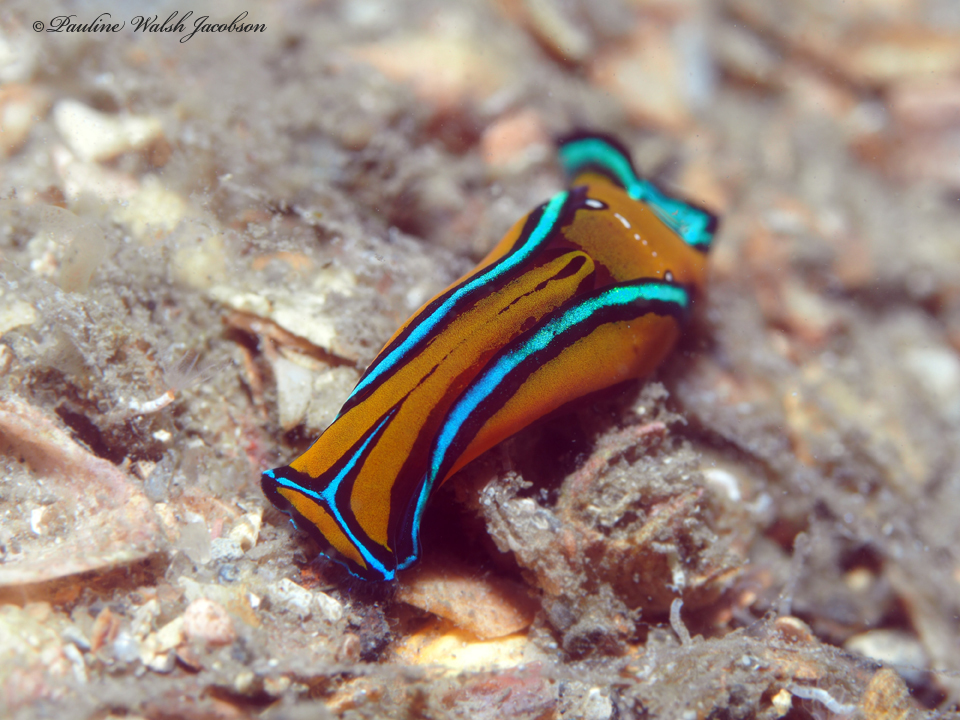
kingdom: Animalia
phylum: Mollusca
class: Gastropoda
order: Cephalaspidea
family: Aglajidae
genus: Chelidonura
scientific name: Chelidonura hirundinina
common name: Leech headshield slug
